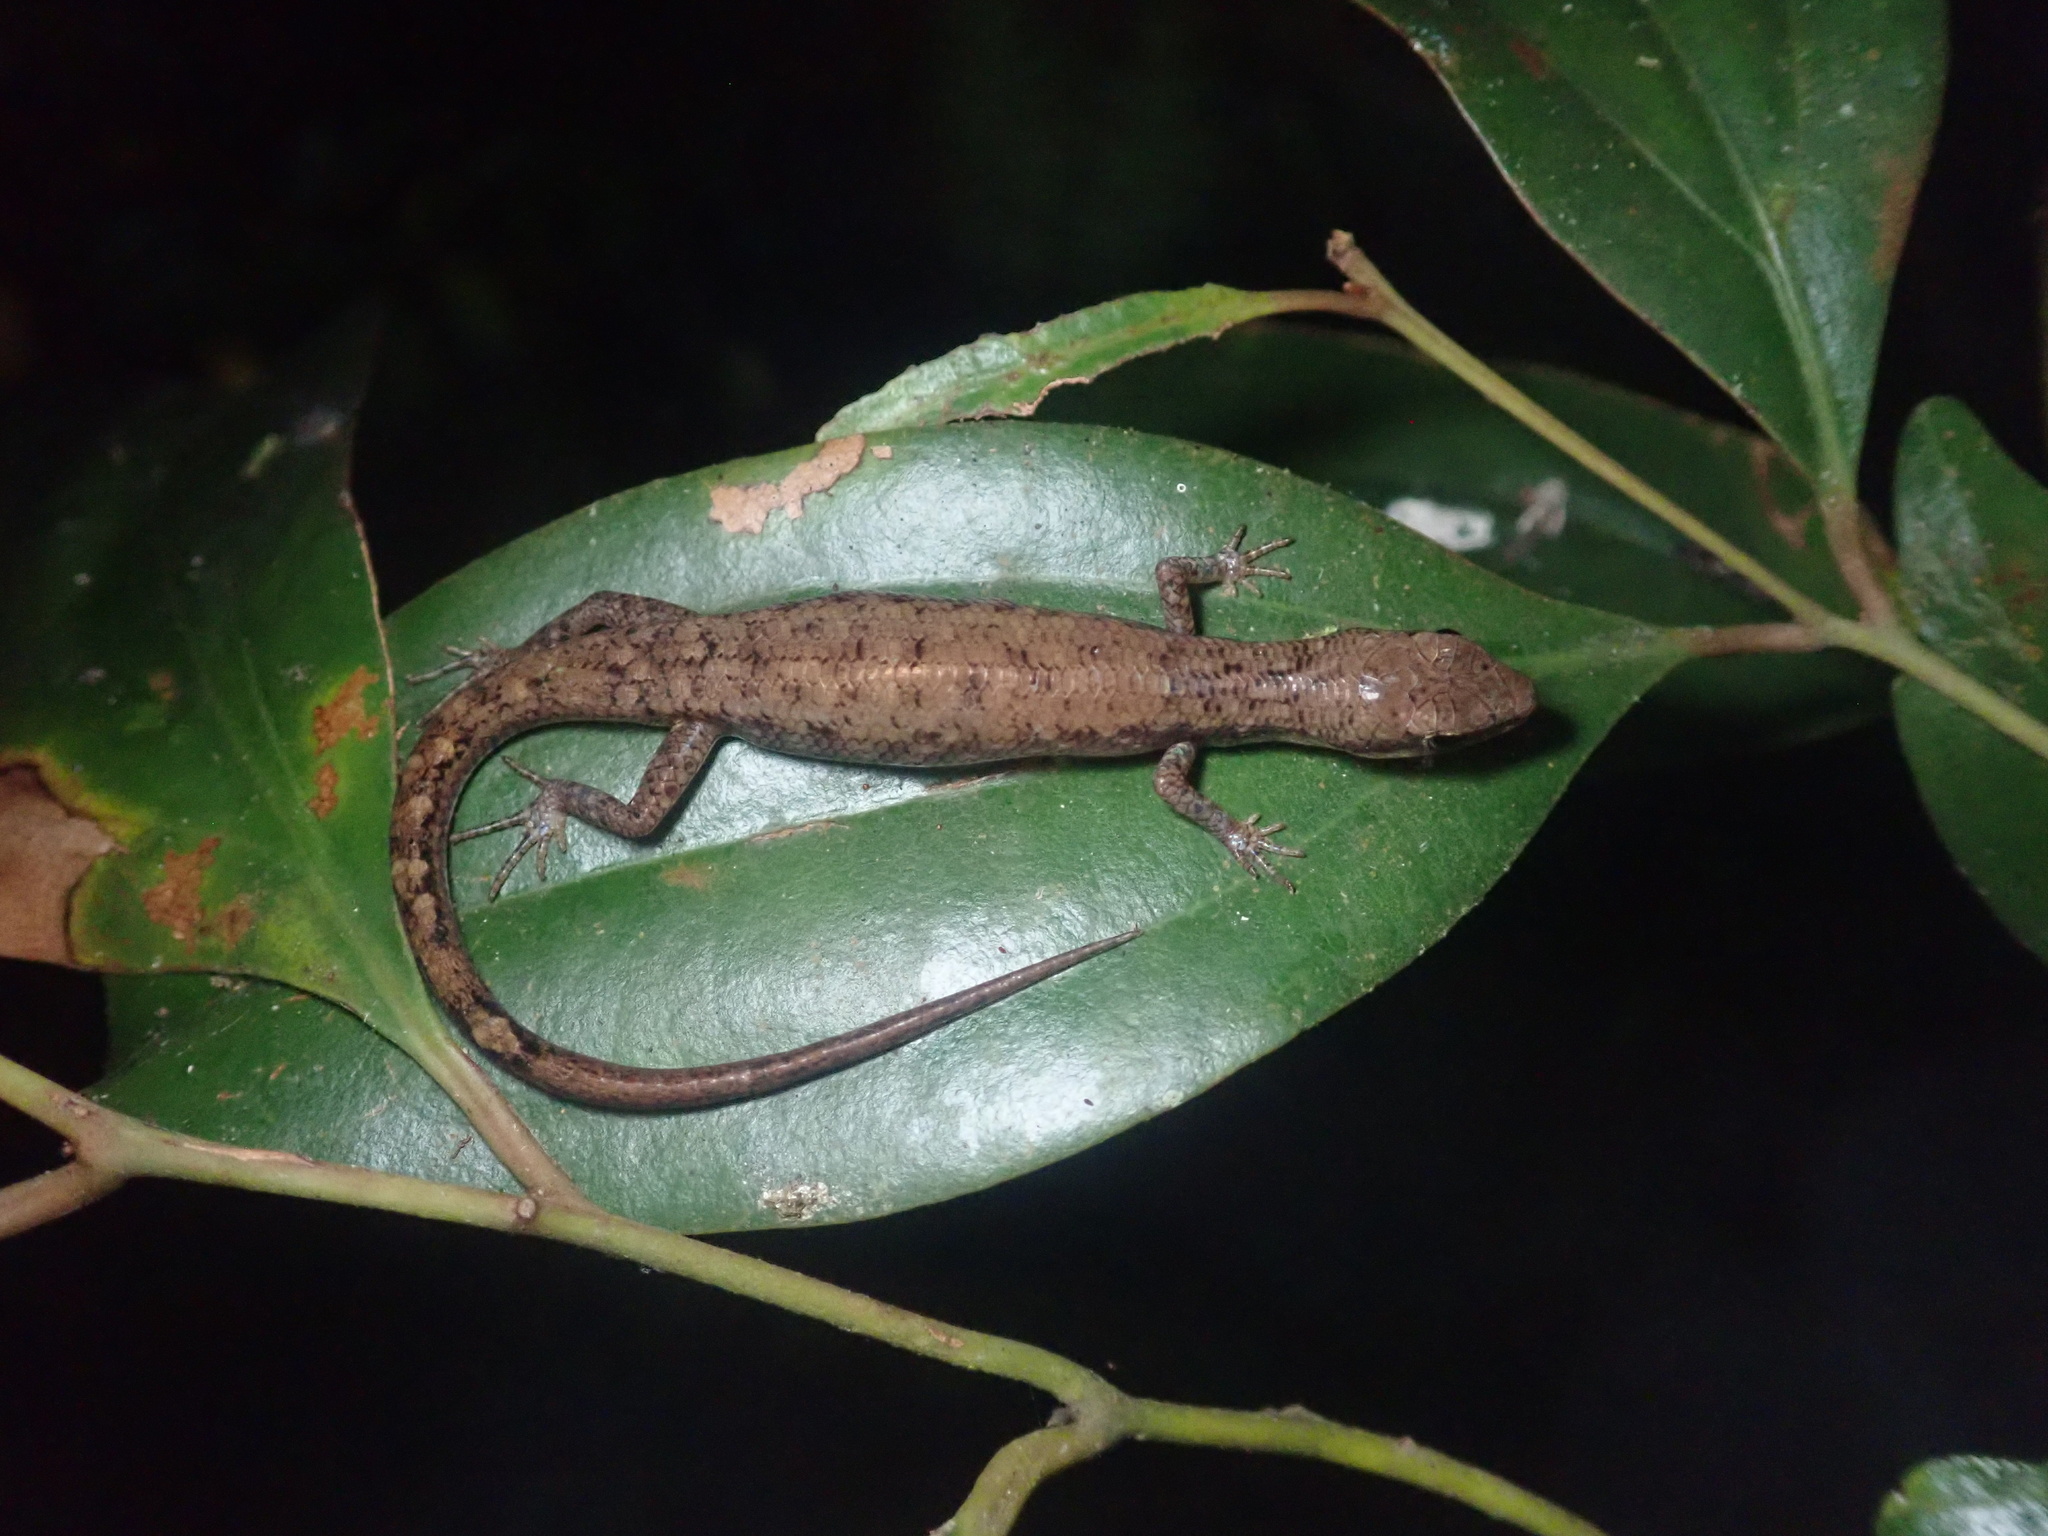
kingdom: Animalia
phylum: Chordata
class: Squamata
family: Scincidae
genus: Saproscincus
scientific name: Saproscincus basiliscus
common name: Pale-lipped shadeskink
